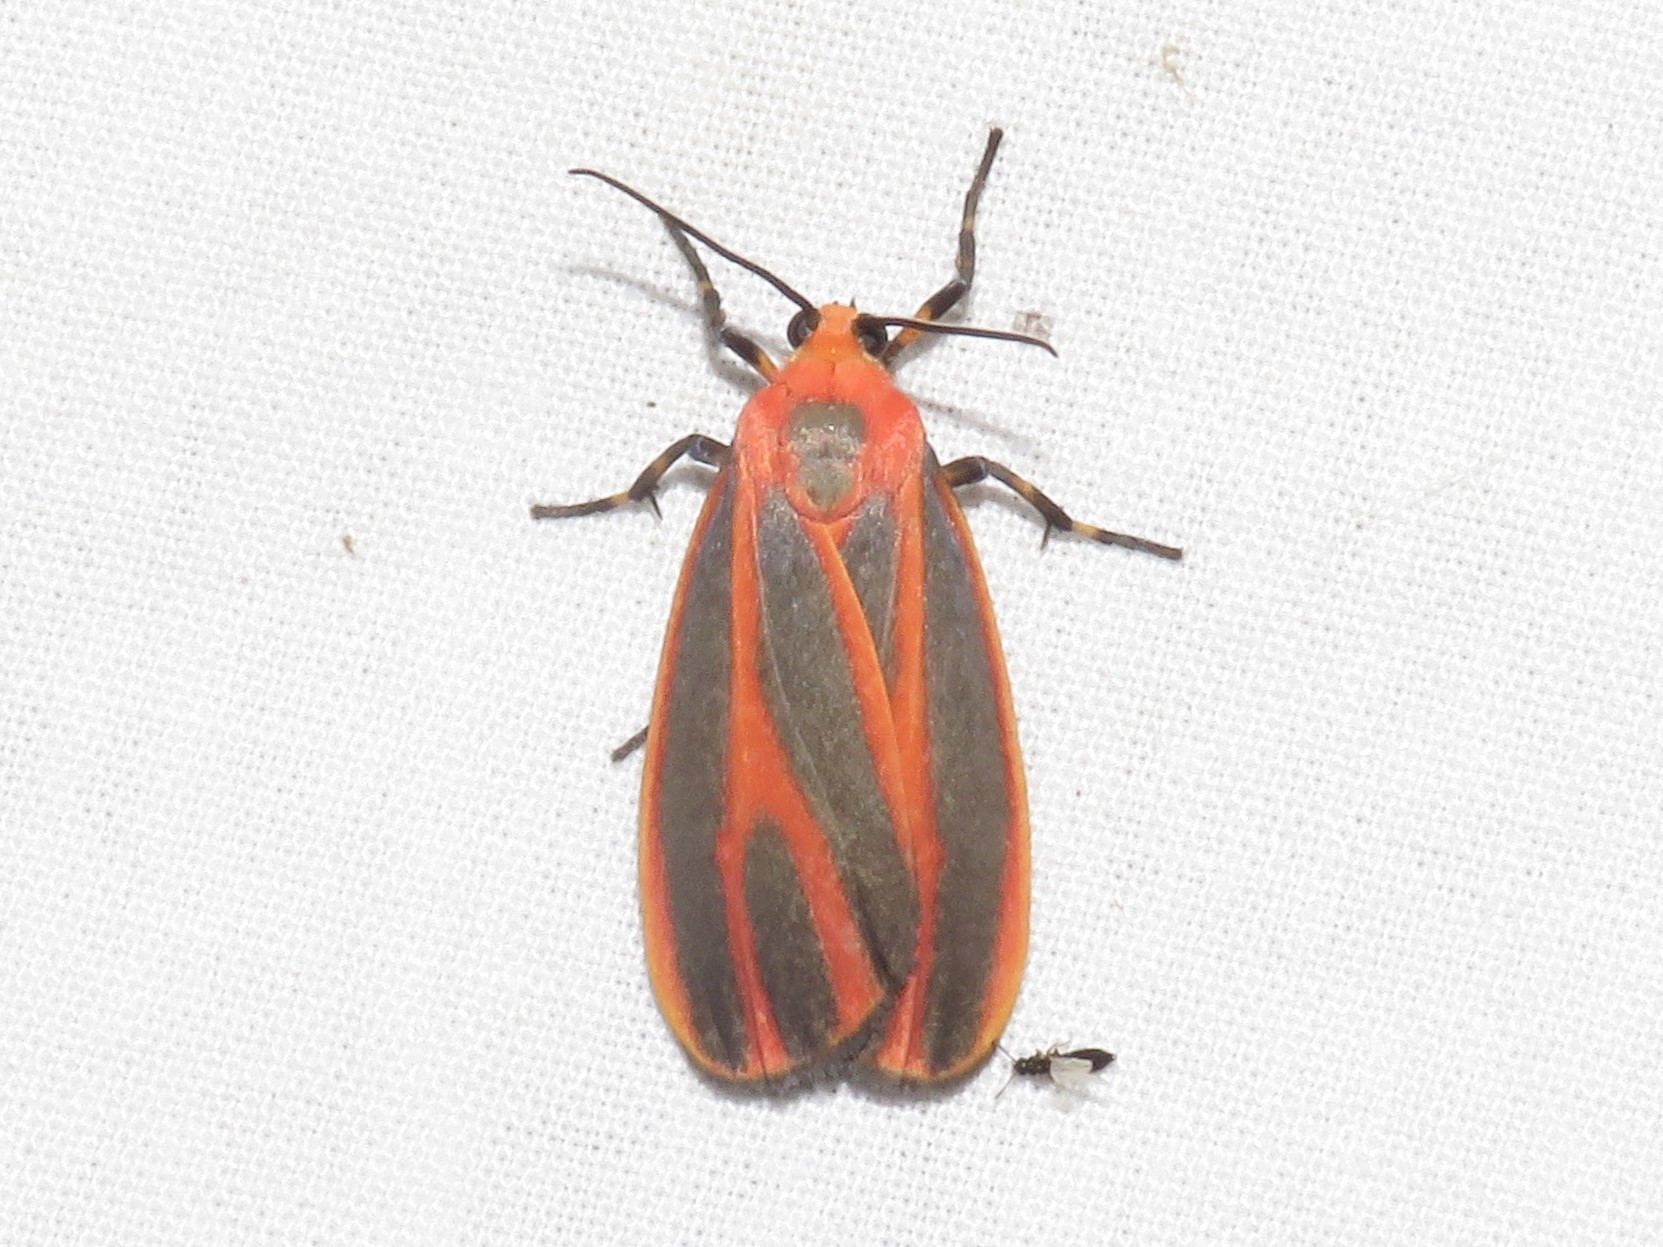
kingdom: Animalia
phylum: Arthropoda
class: Insecta
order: Lepidoptera
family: Erebidae
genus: Hypoprepia
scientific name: Hypoprepia miniata
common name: Scarlet-winged lichen moth
